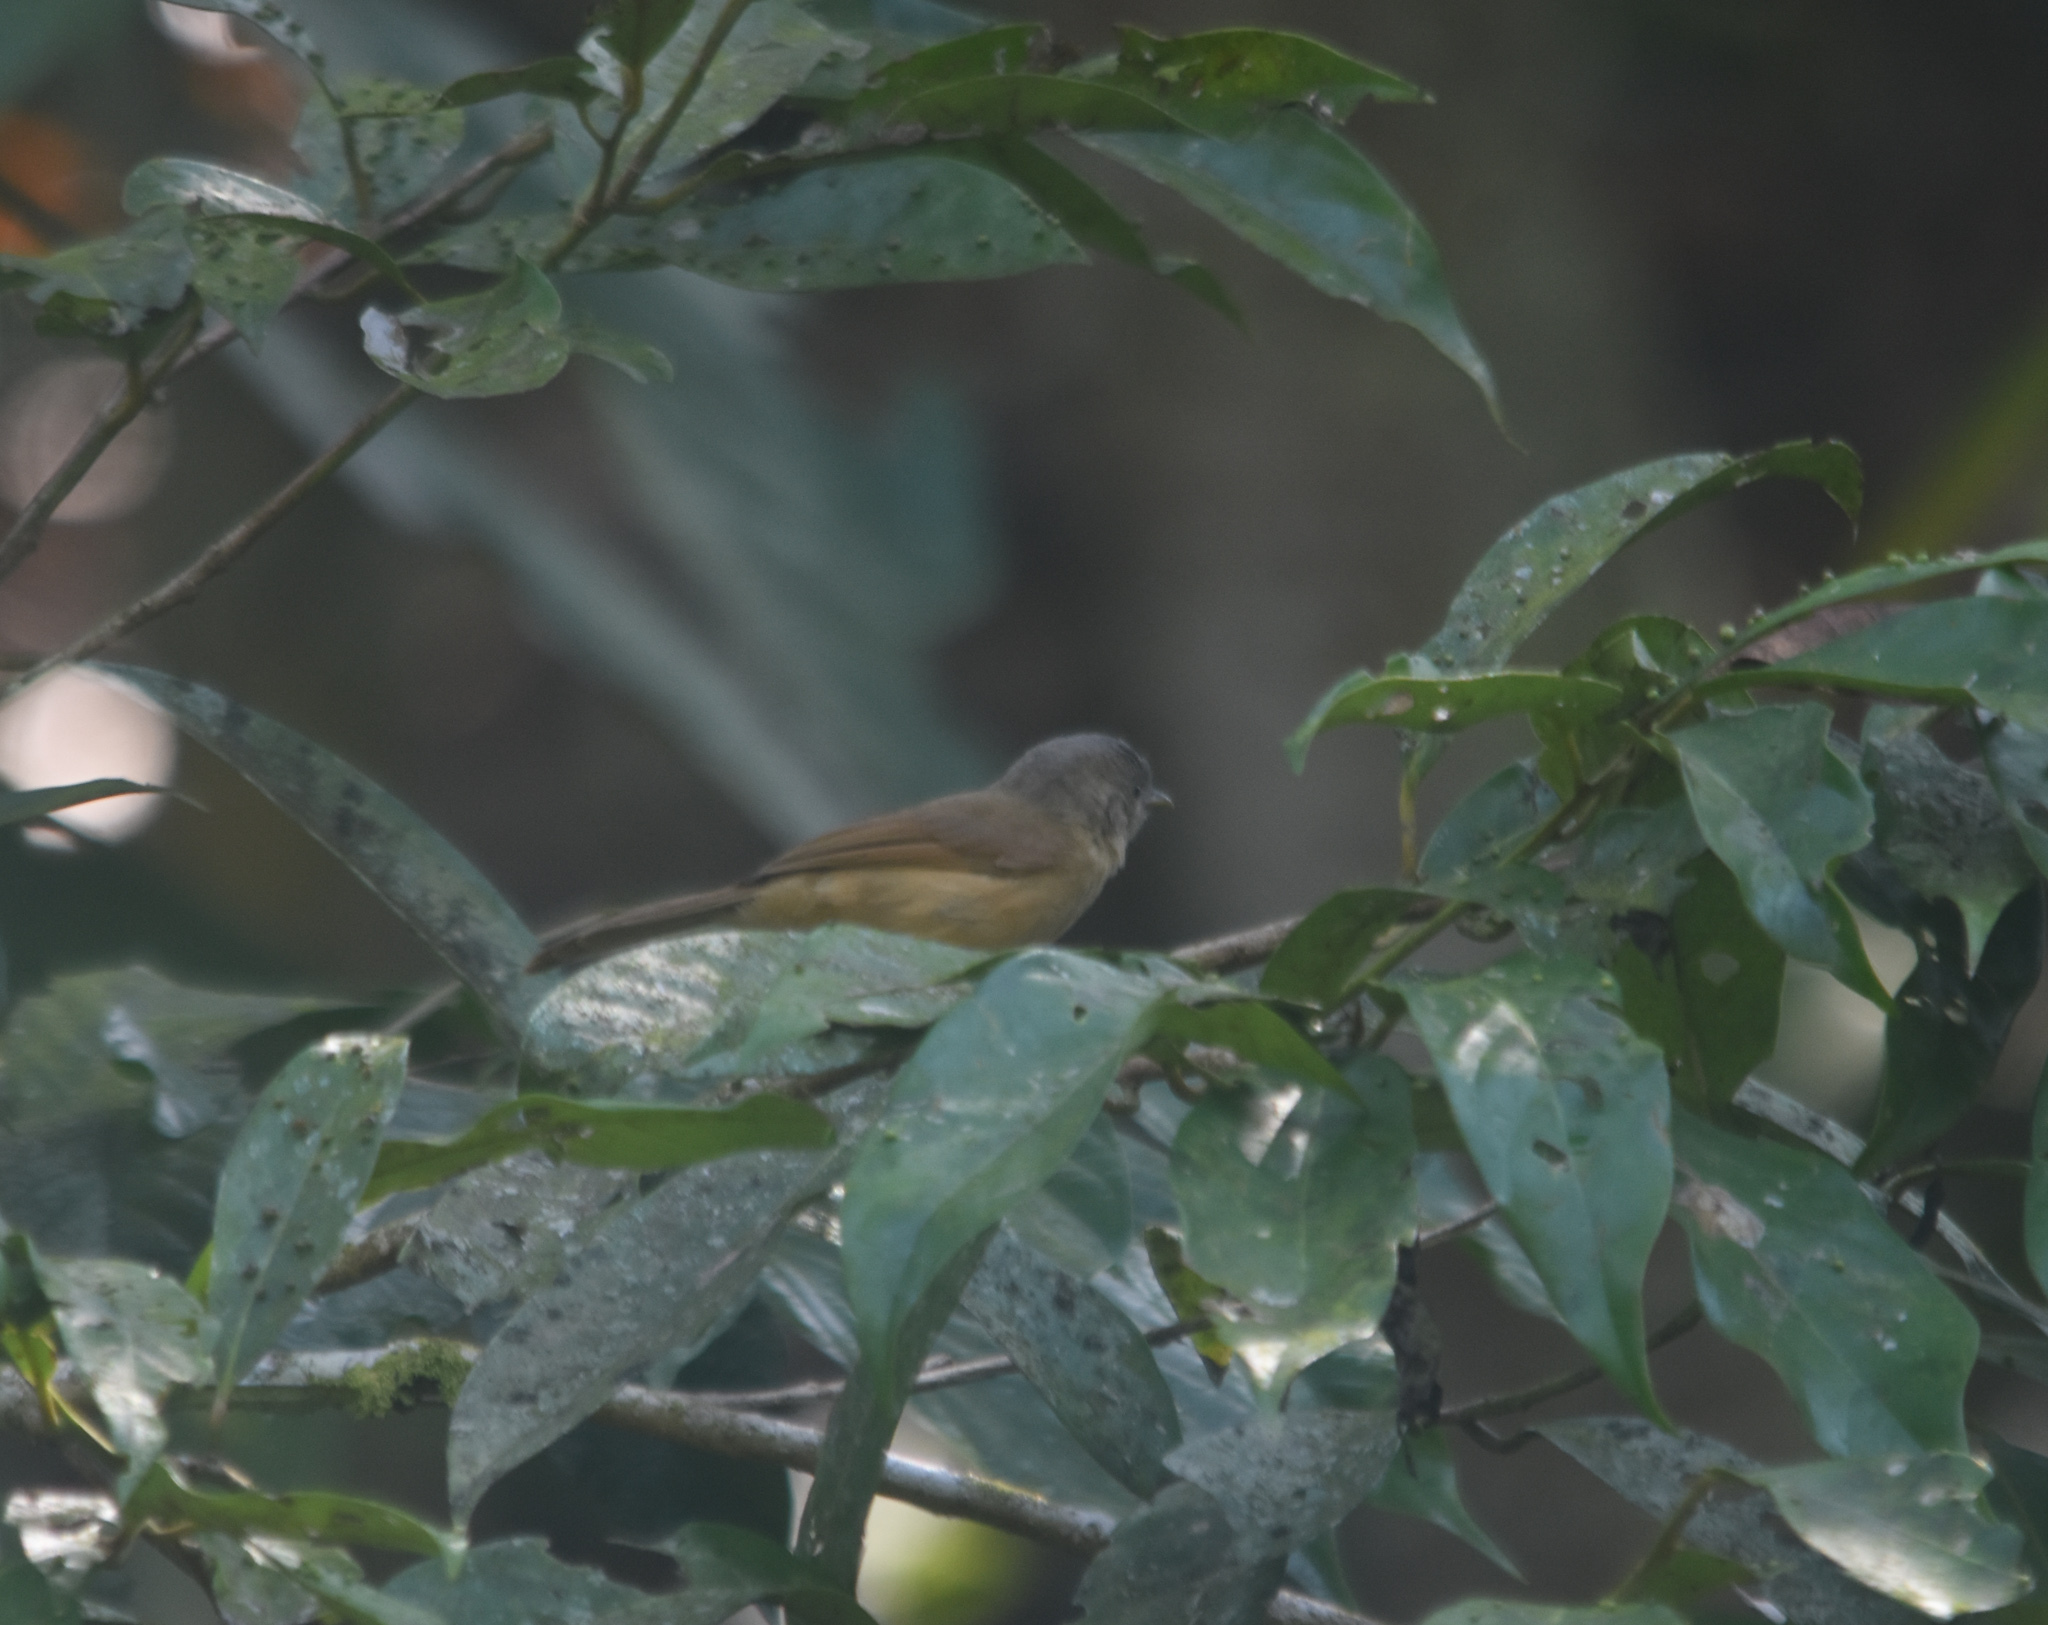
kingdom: Animalia
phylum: Chordata
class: Aves
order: Passeriformes
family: Pellorneidae
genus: Alcippe
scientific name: Alcippe poioicephala
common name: Brown-cheeked fulvetta
